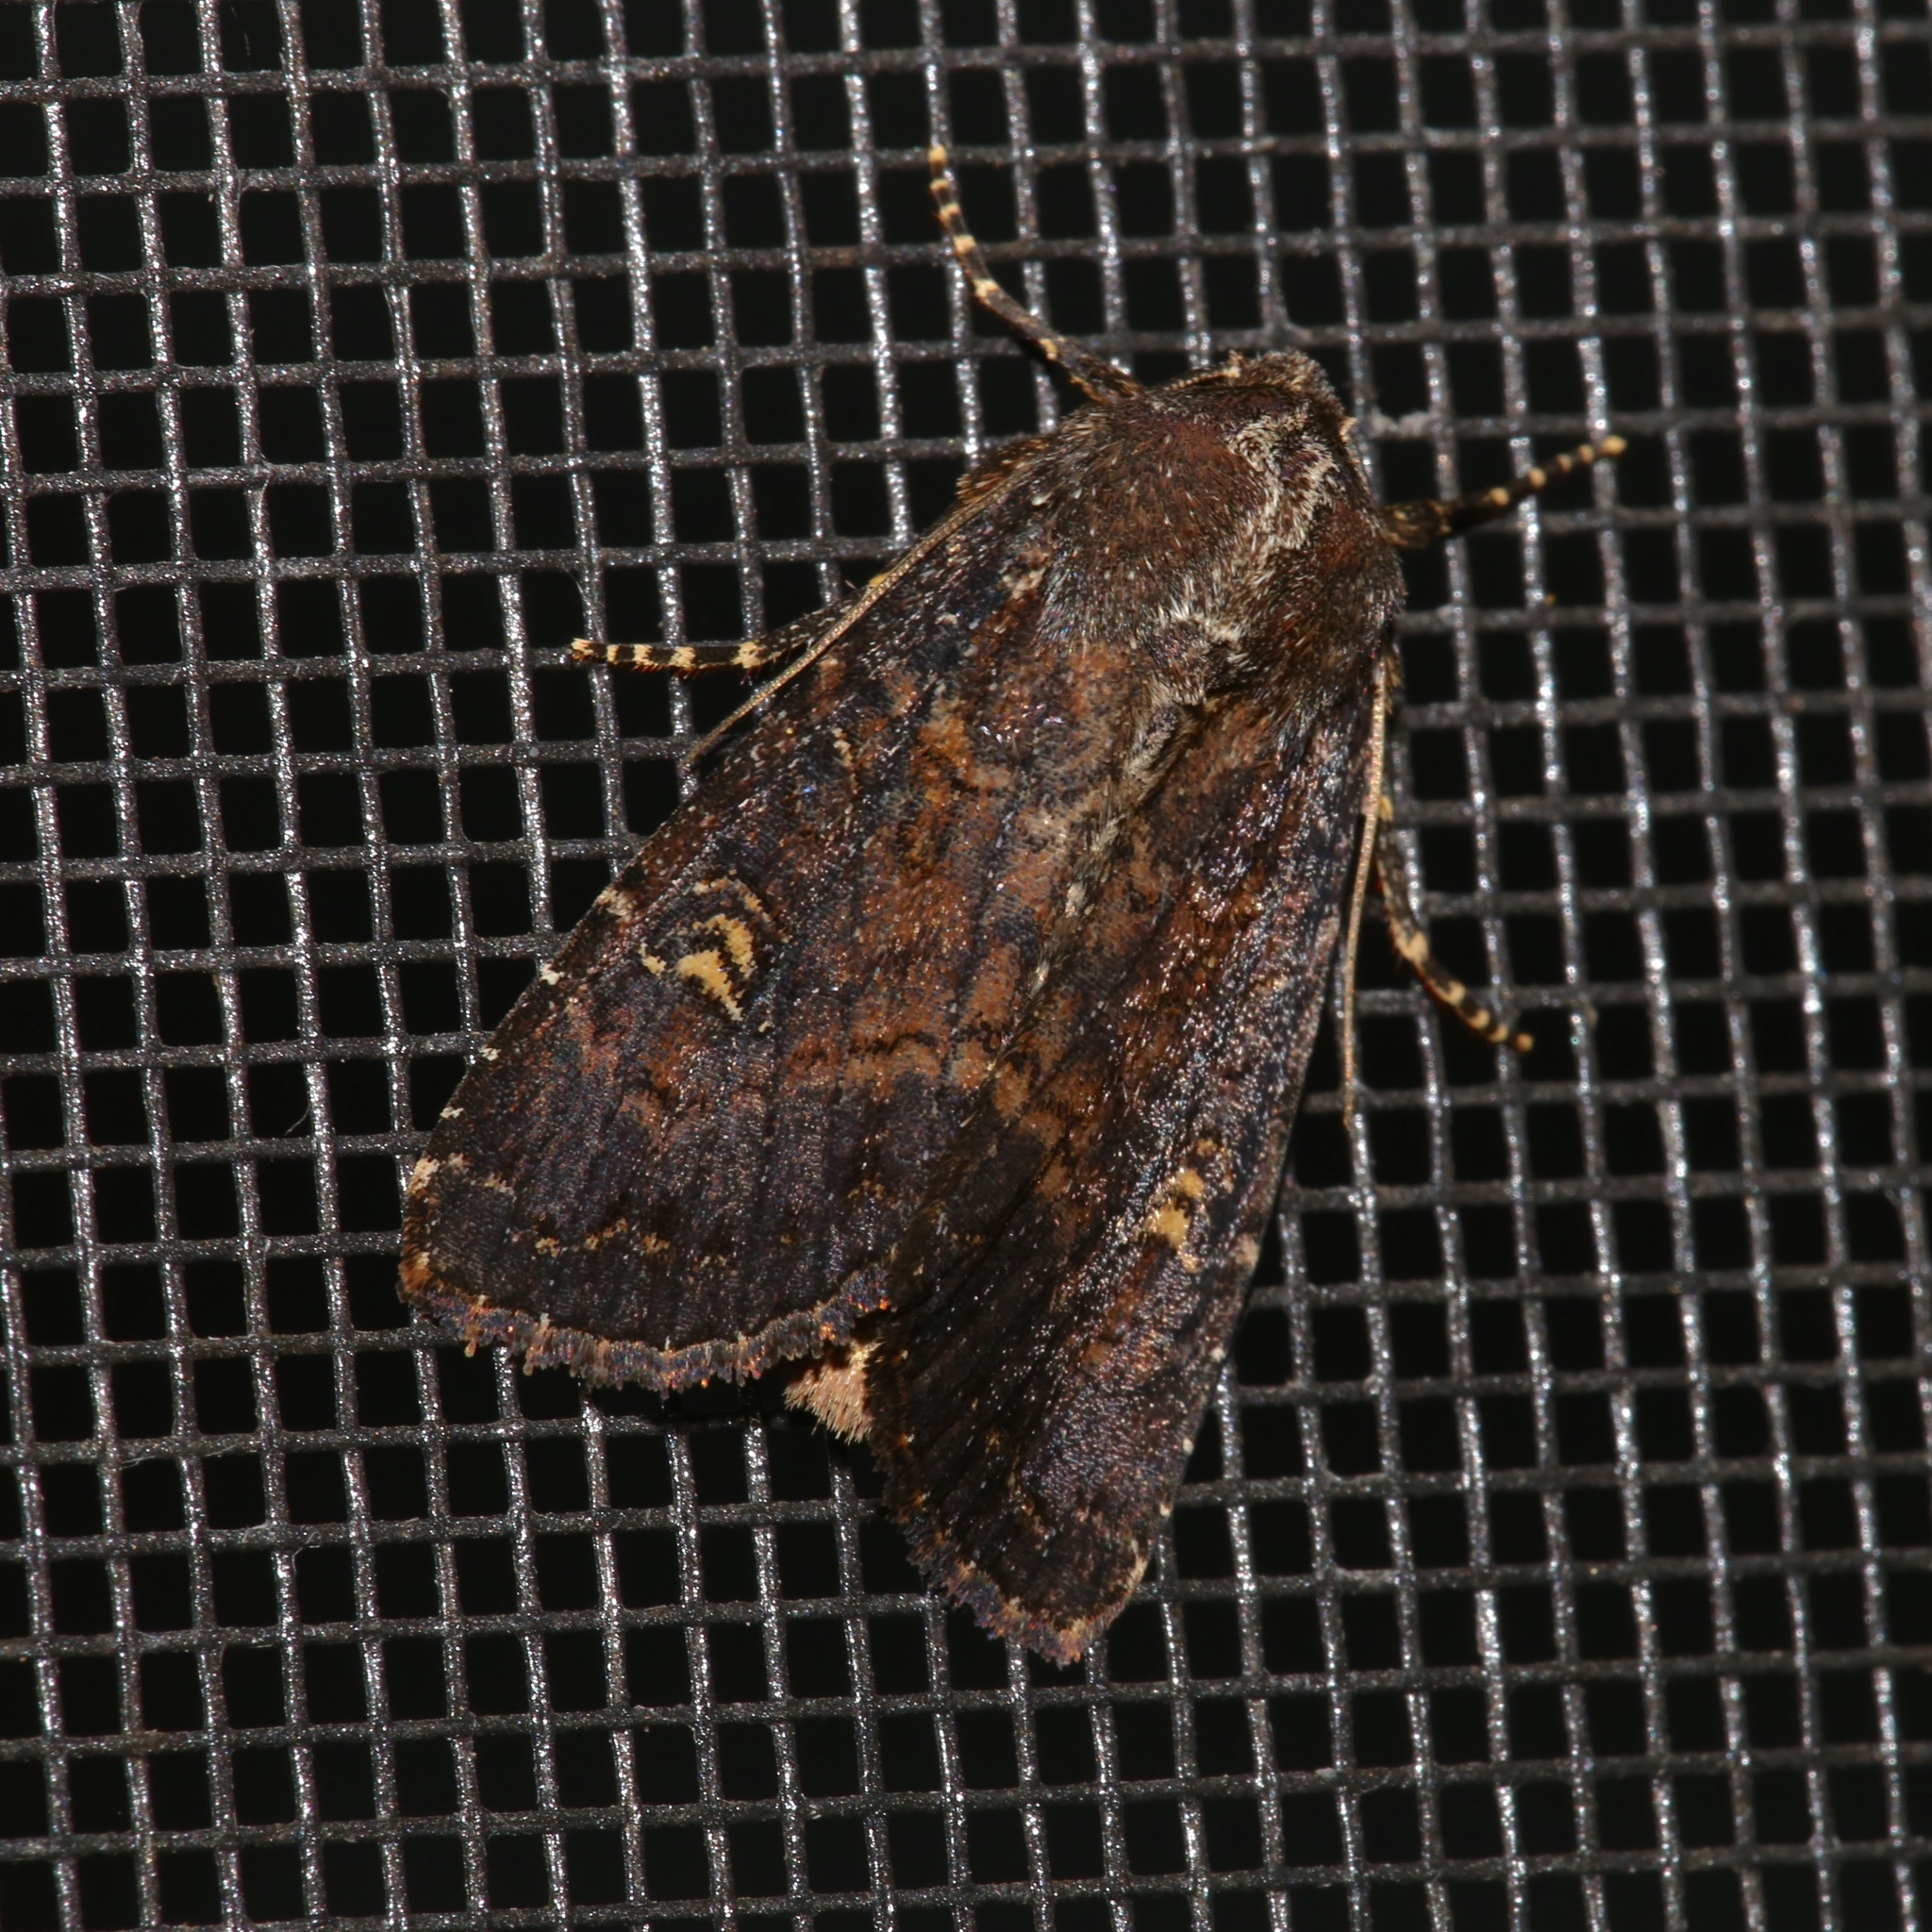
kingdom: Animalia
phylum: Arthropoda
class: Insecta
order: Lepidoptera
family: Noctuidae
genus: Apamea
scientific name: Apamea dubitans
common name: Doubtful apamea moth
